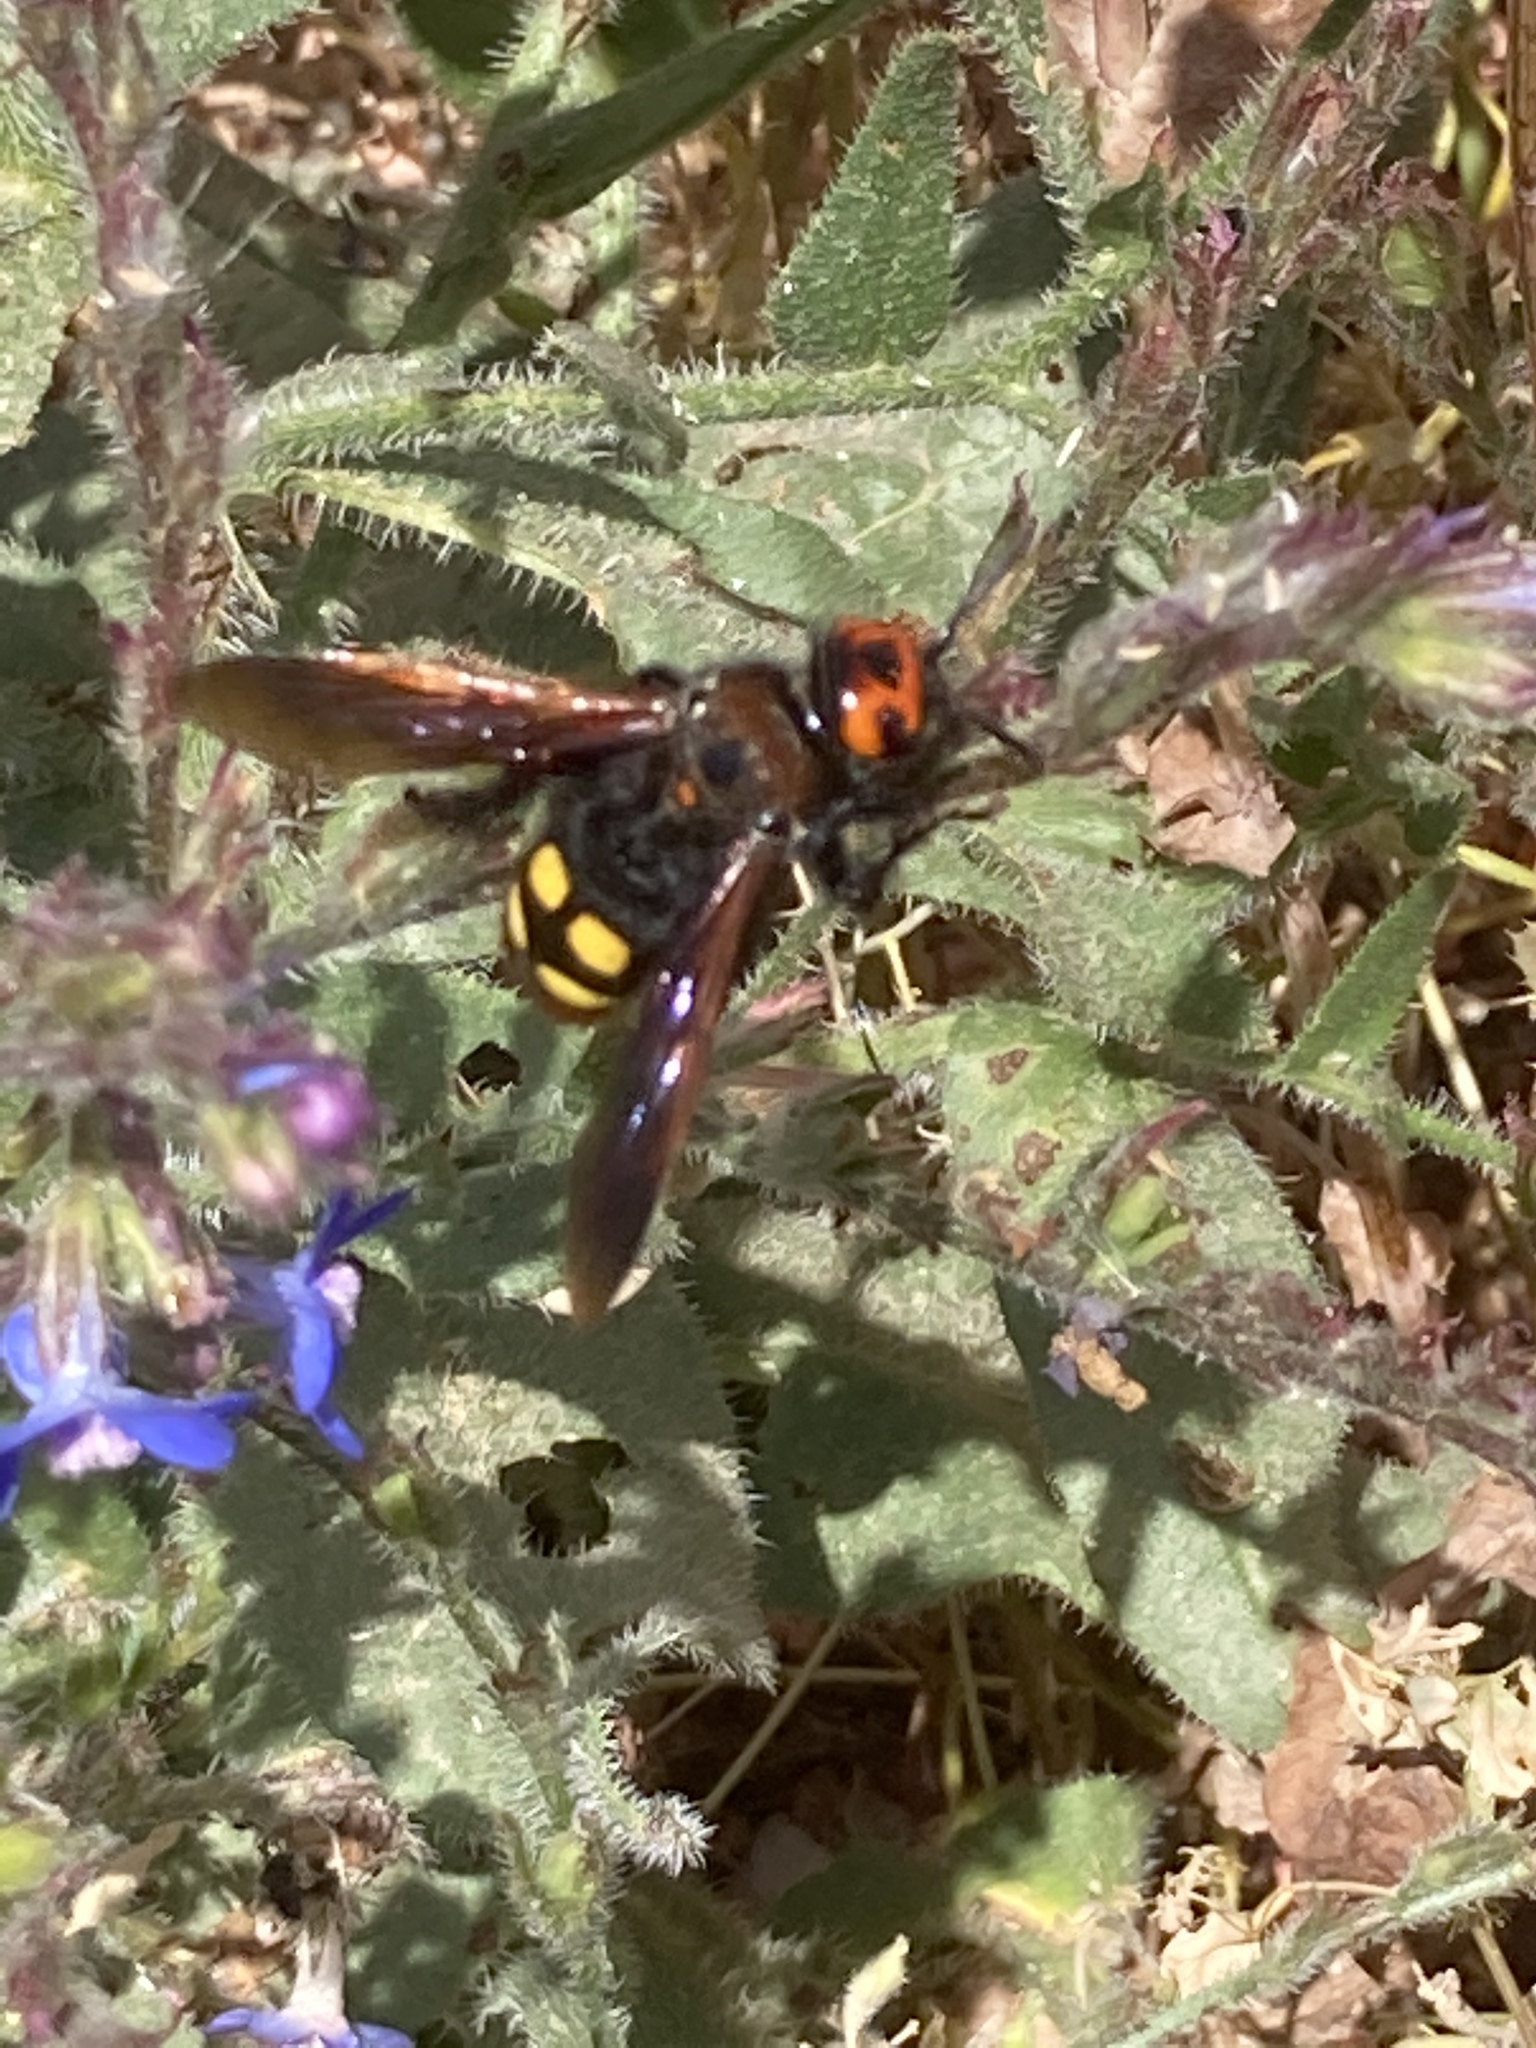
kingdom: Animalia
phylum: Arthropoda
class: Insecta
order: Hymenoptera
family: Scoliidae
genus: Megascolia
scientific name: Megascolia maculata
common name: Mammoth wasp
